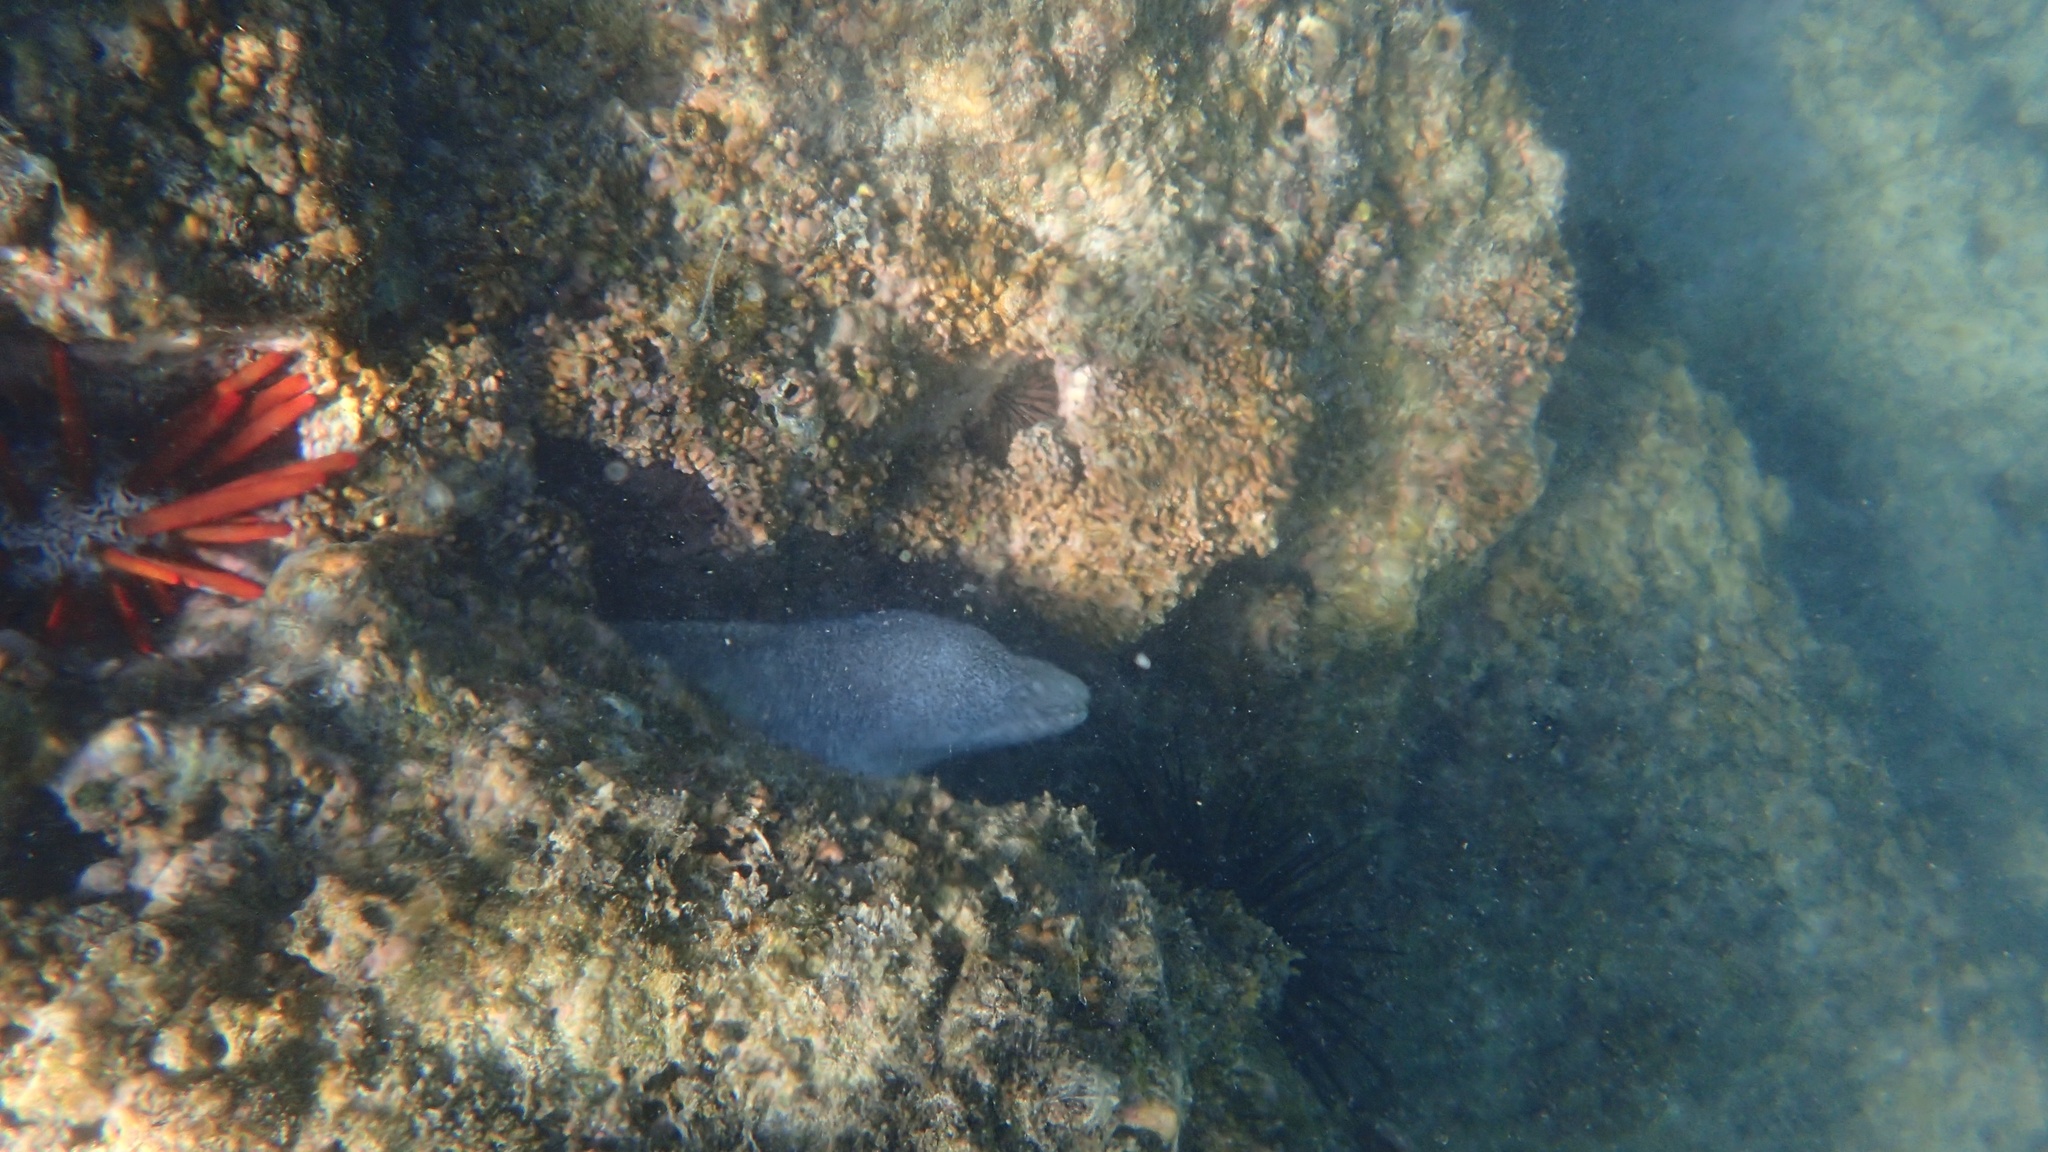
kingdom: Animalia
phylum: Chordata
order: Anguilliformes
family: Muraenidae
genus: Gymnothorax
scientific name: Gymnothorax pictus
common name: Peppered moray
